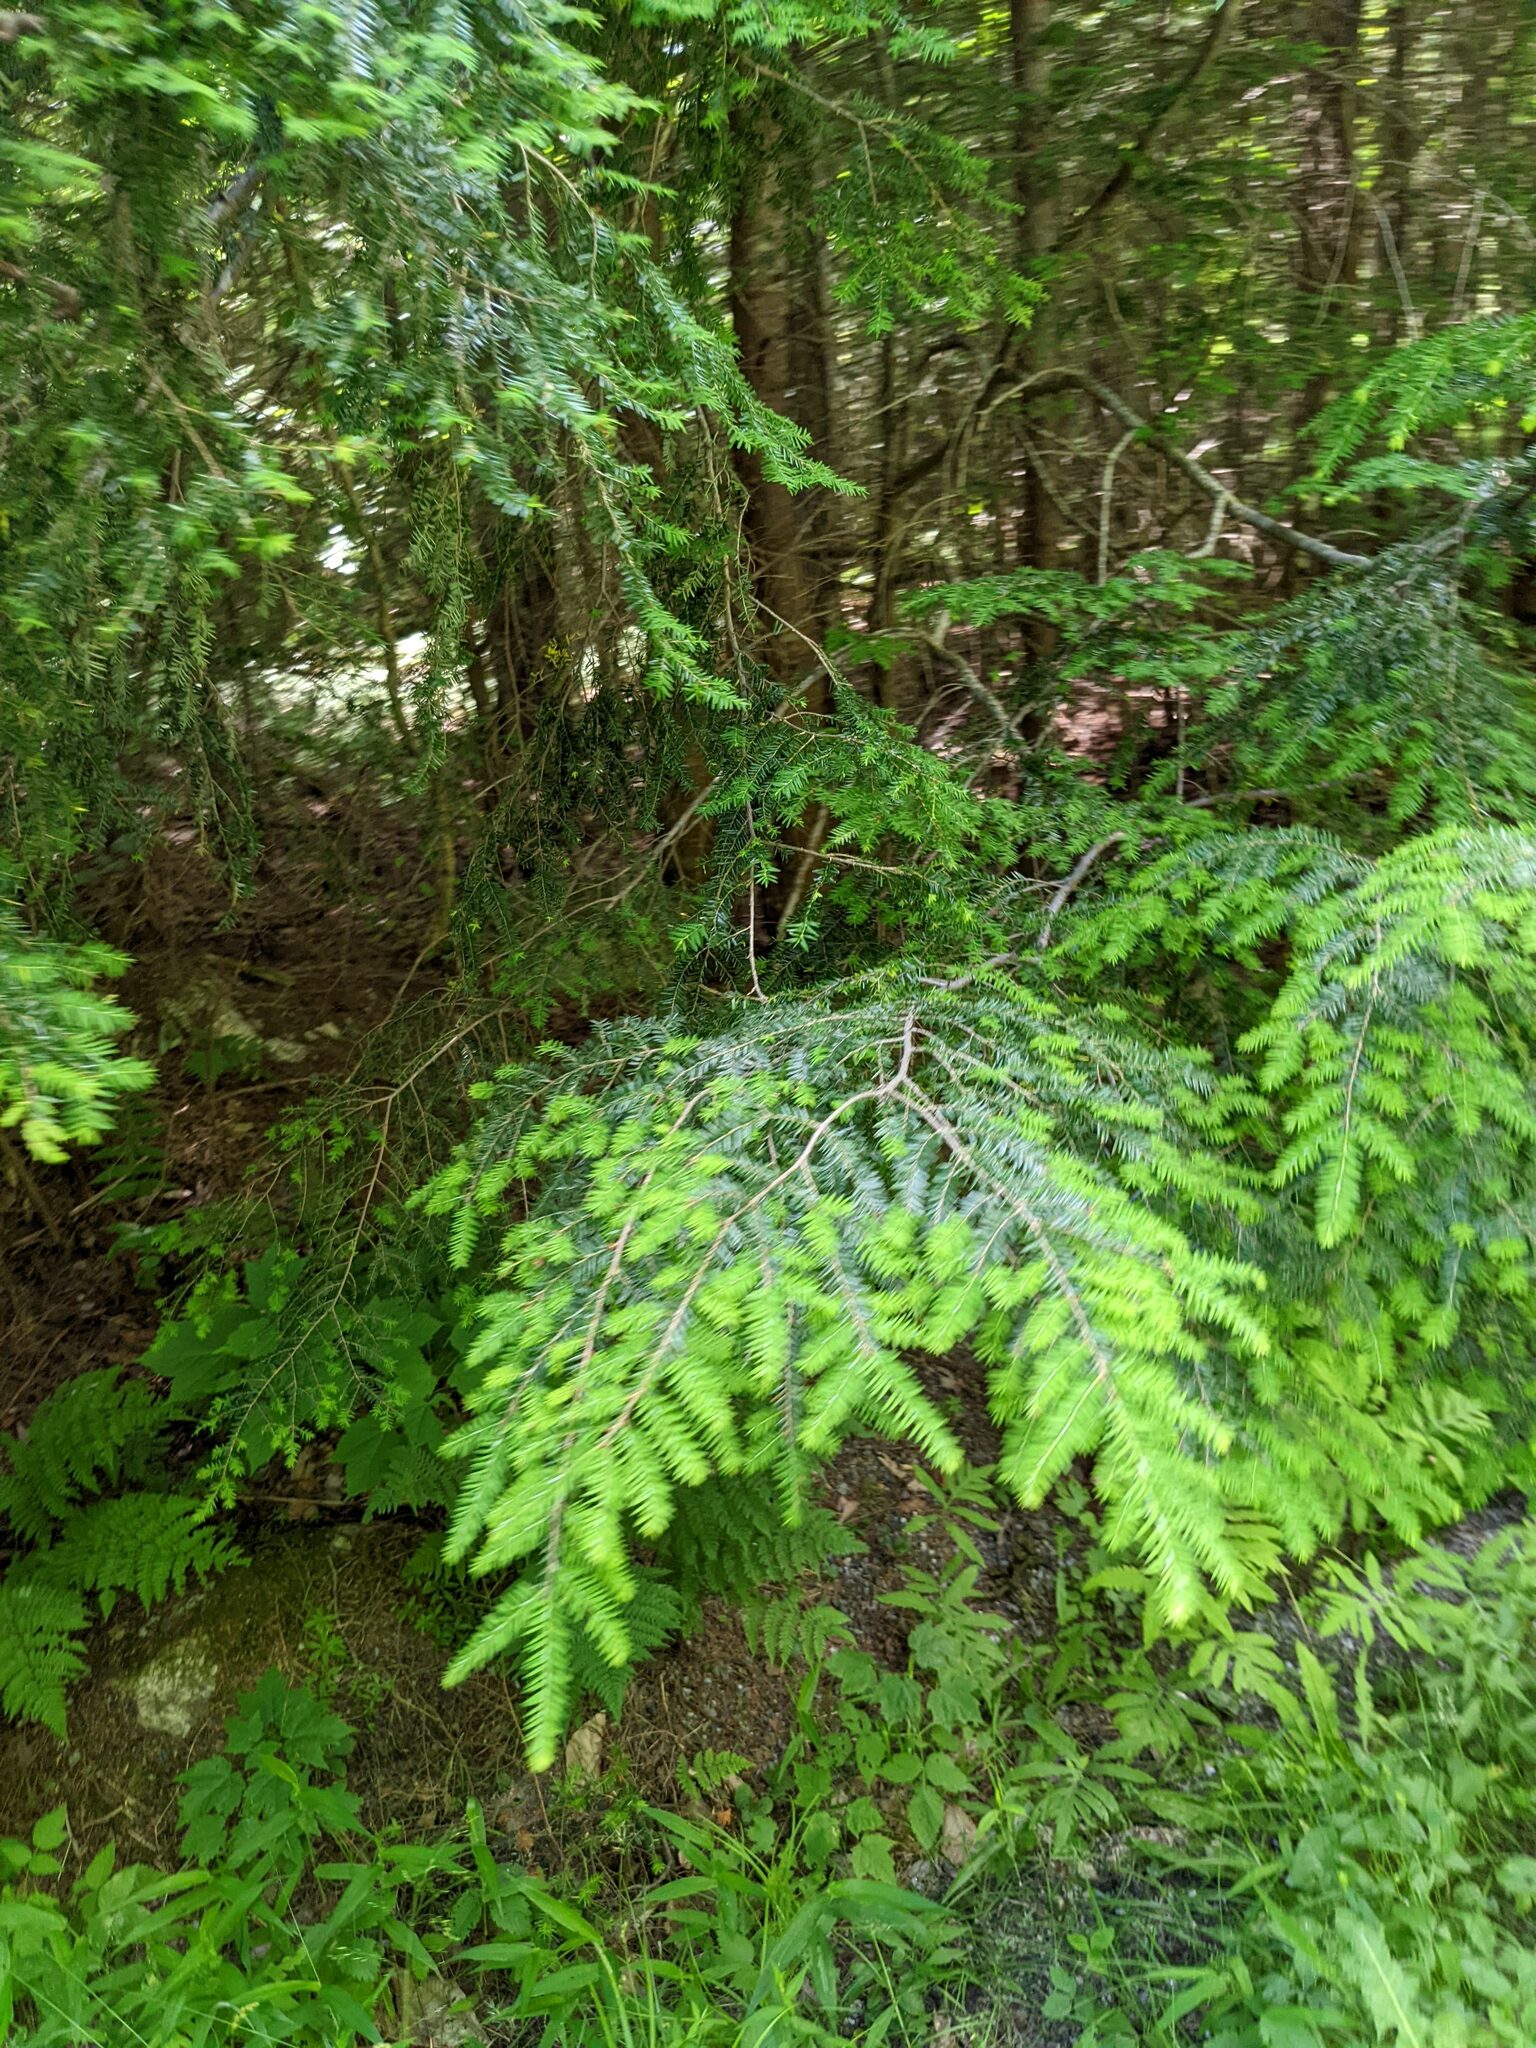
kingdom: Plantae
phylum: Tracheophyta
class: Pinopsida
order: Pinales
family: Pinaceae
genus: Tsuga
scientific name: Tsuga canadensis
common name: Eastern hemlock
